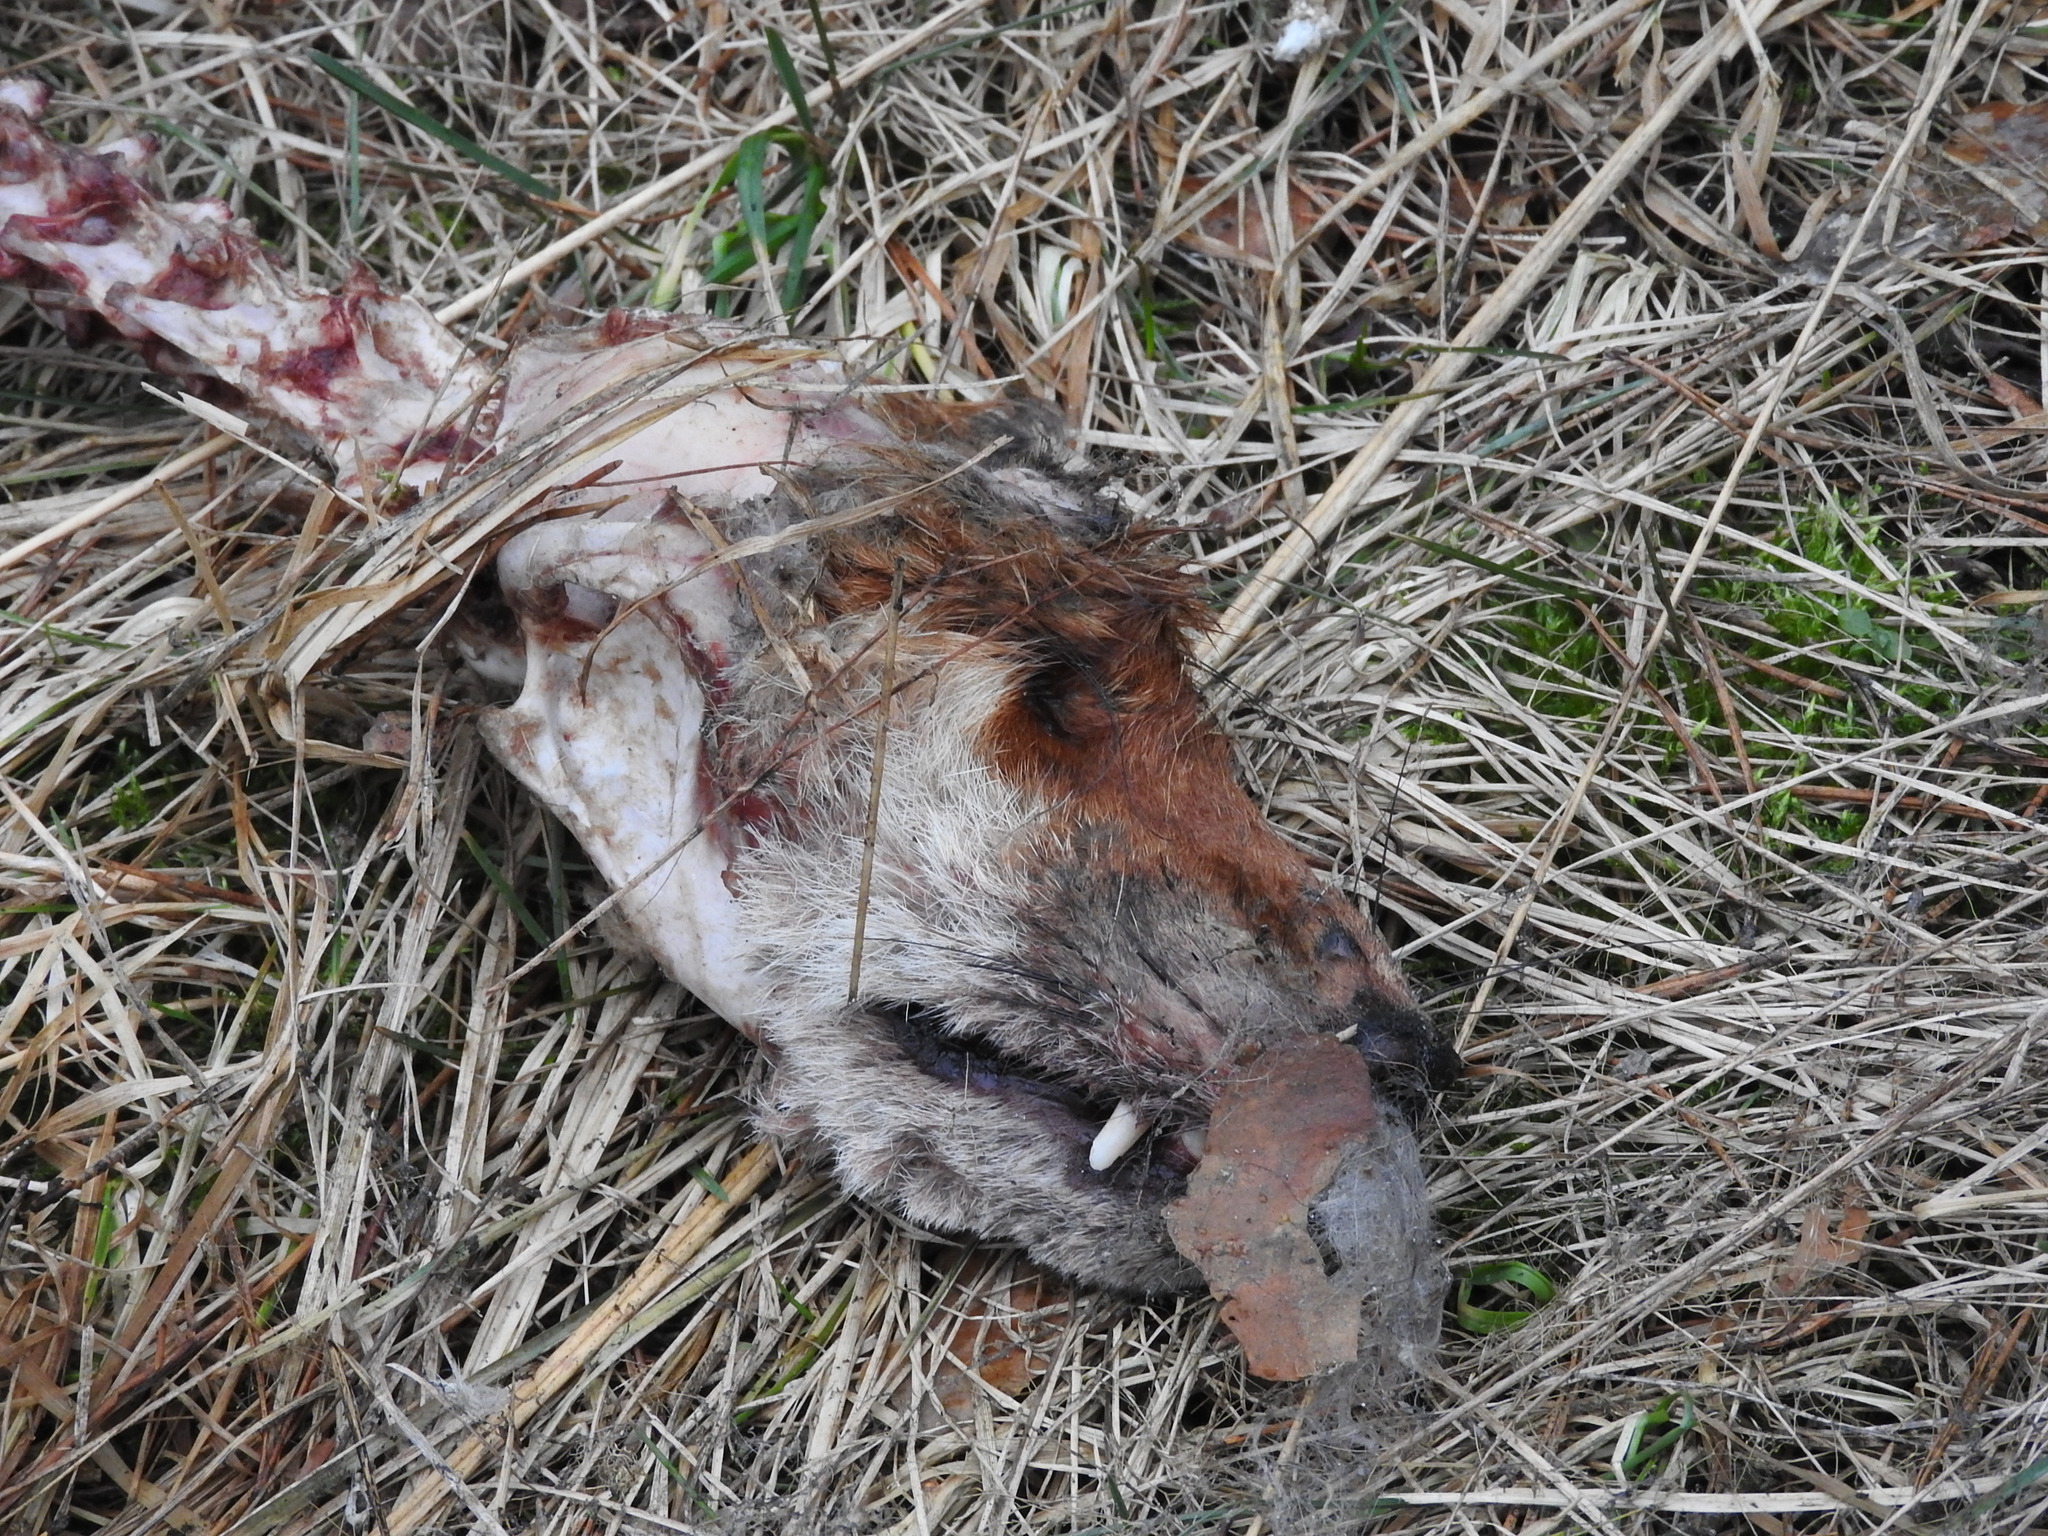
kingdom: Animalia
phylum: Chordata
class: Mammalia
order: Carnivora
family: Canidae
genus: Vulpes
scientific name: Vulpes vulpes
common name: Red fox
